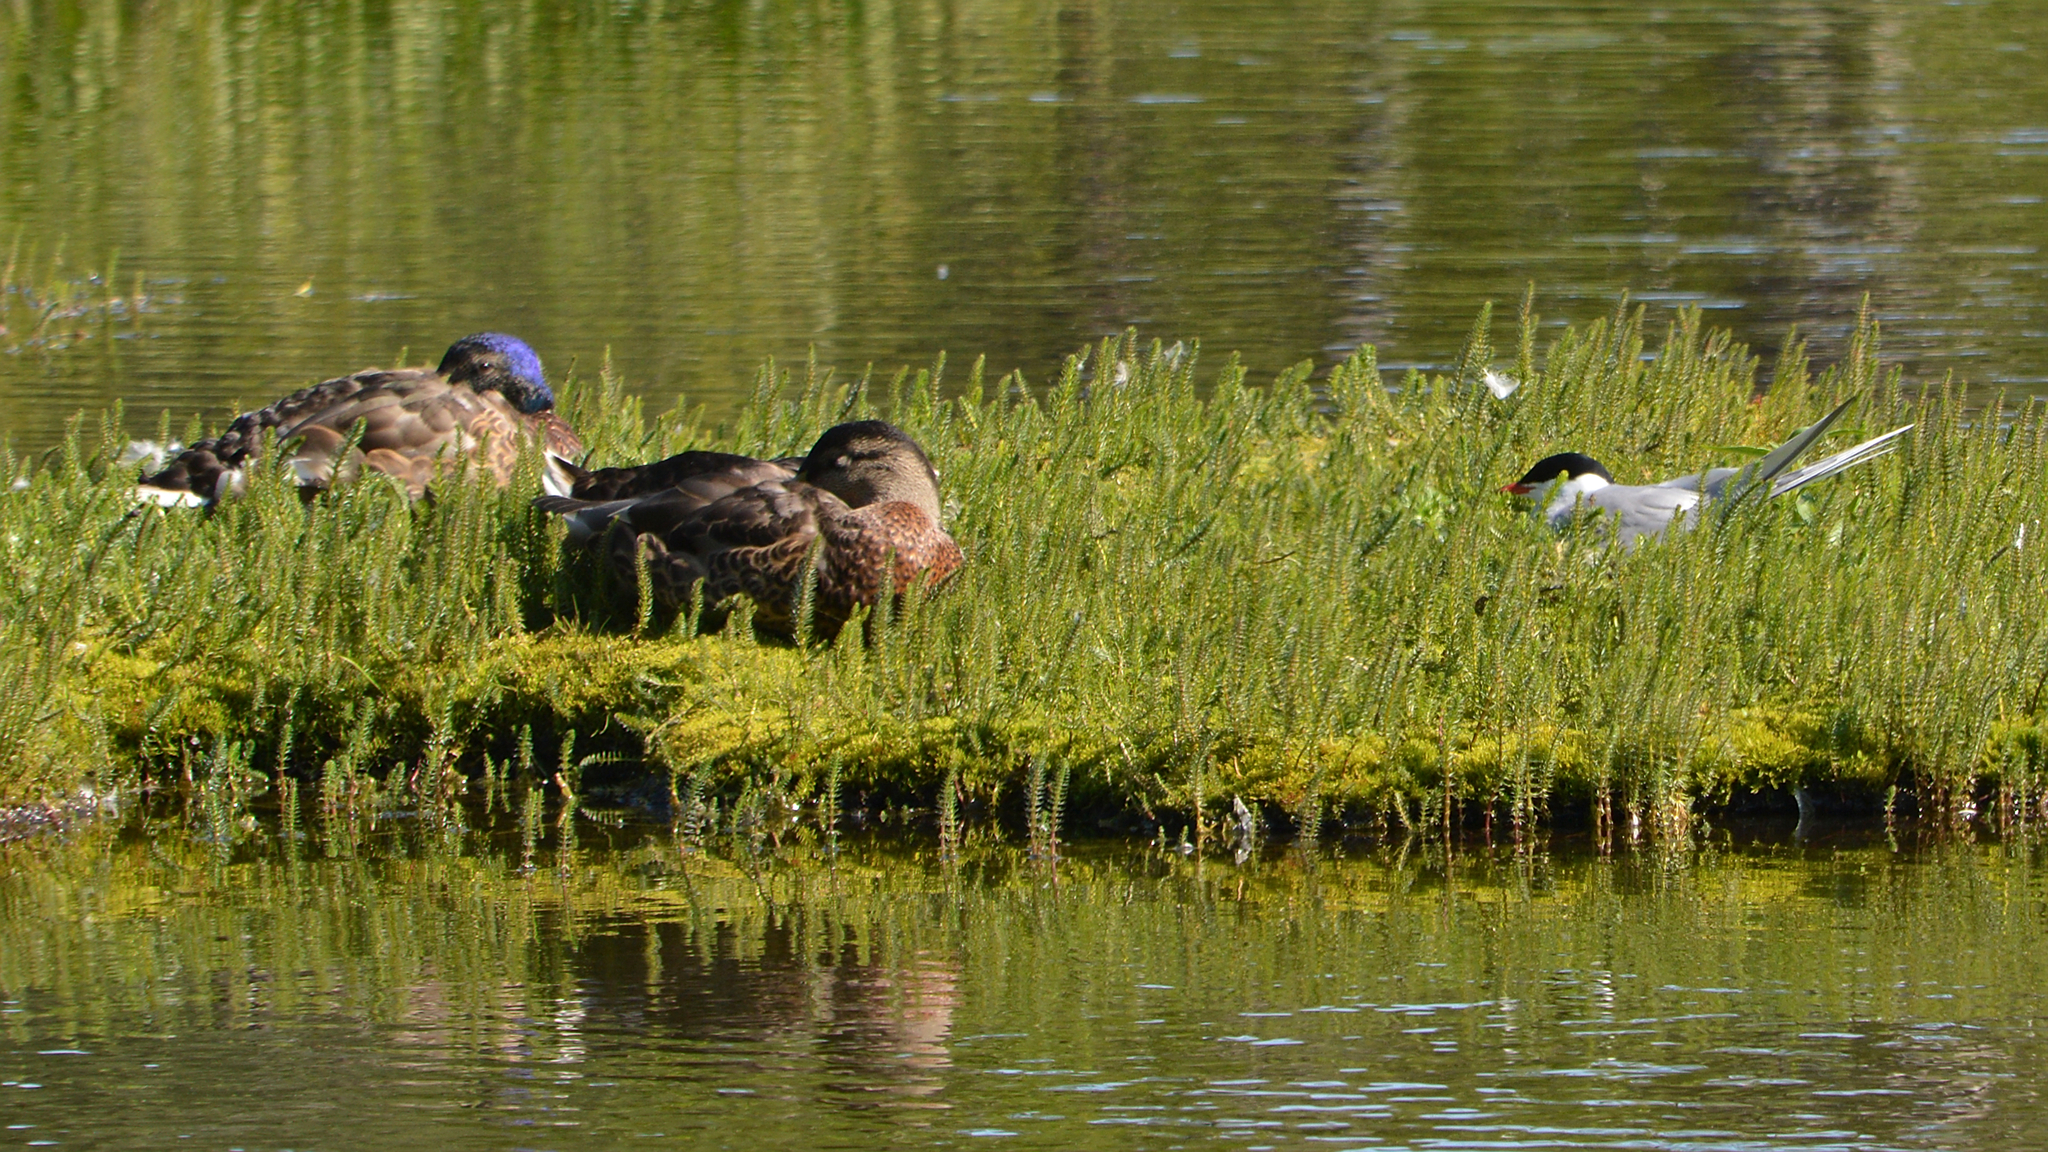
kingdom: Animalia
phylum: Chordata
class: Aves
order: Anseriformes
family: Anatidae
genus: Anas
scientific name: Anas platyrhynchos
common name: Mallard
